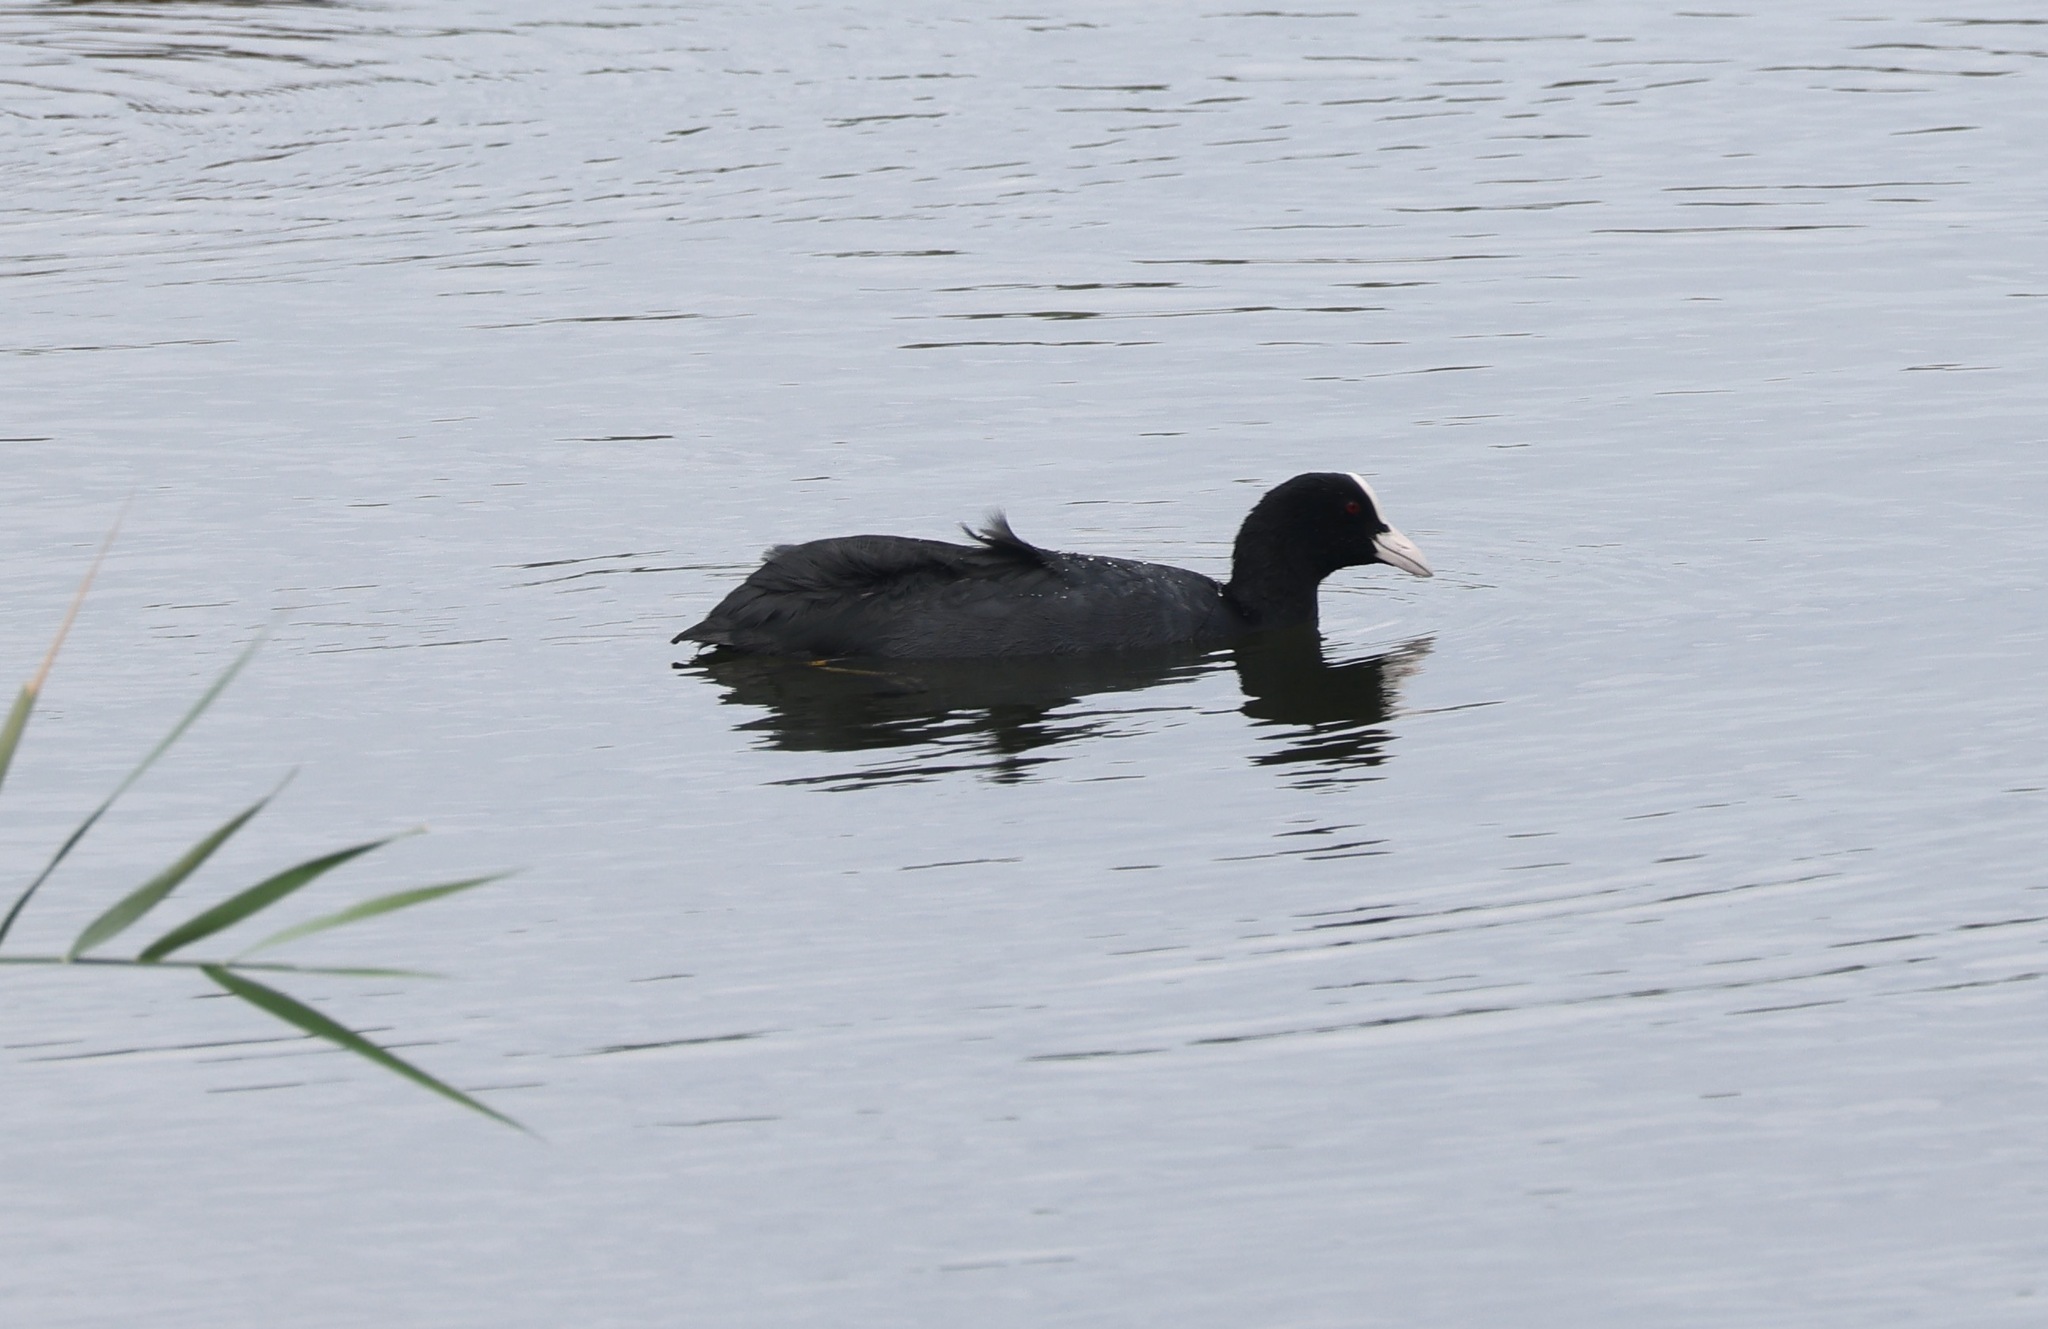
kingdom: Animalia
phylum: Chordata
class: Aves
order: Gruiformes
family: Rallidae
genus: Fulica
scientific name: Fulica atra
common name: Eurasian coot
